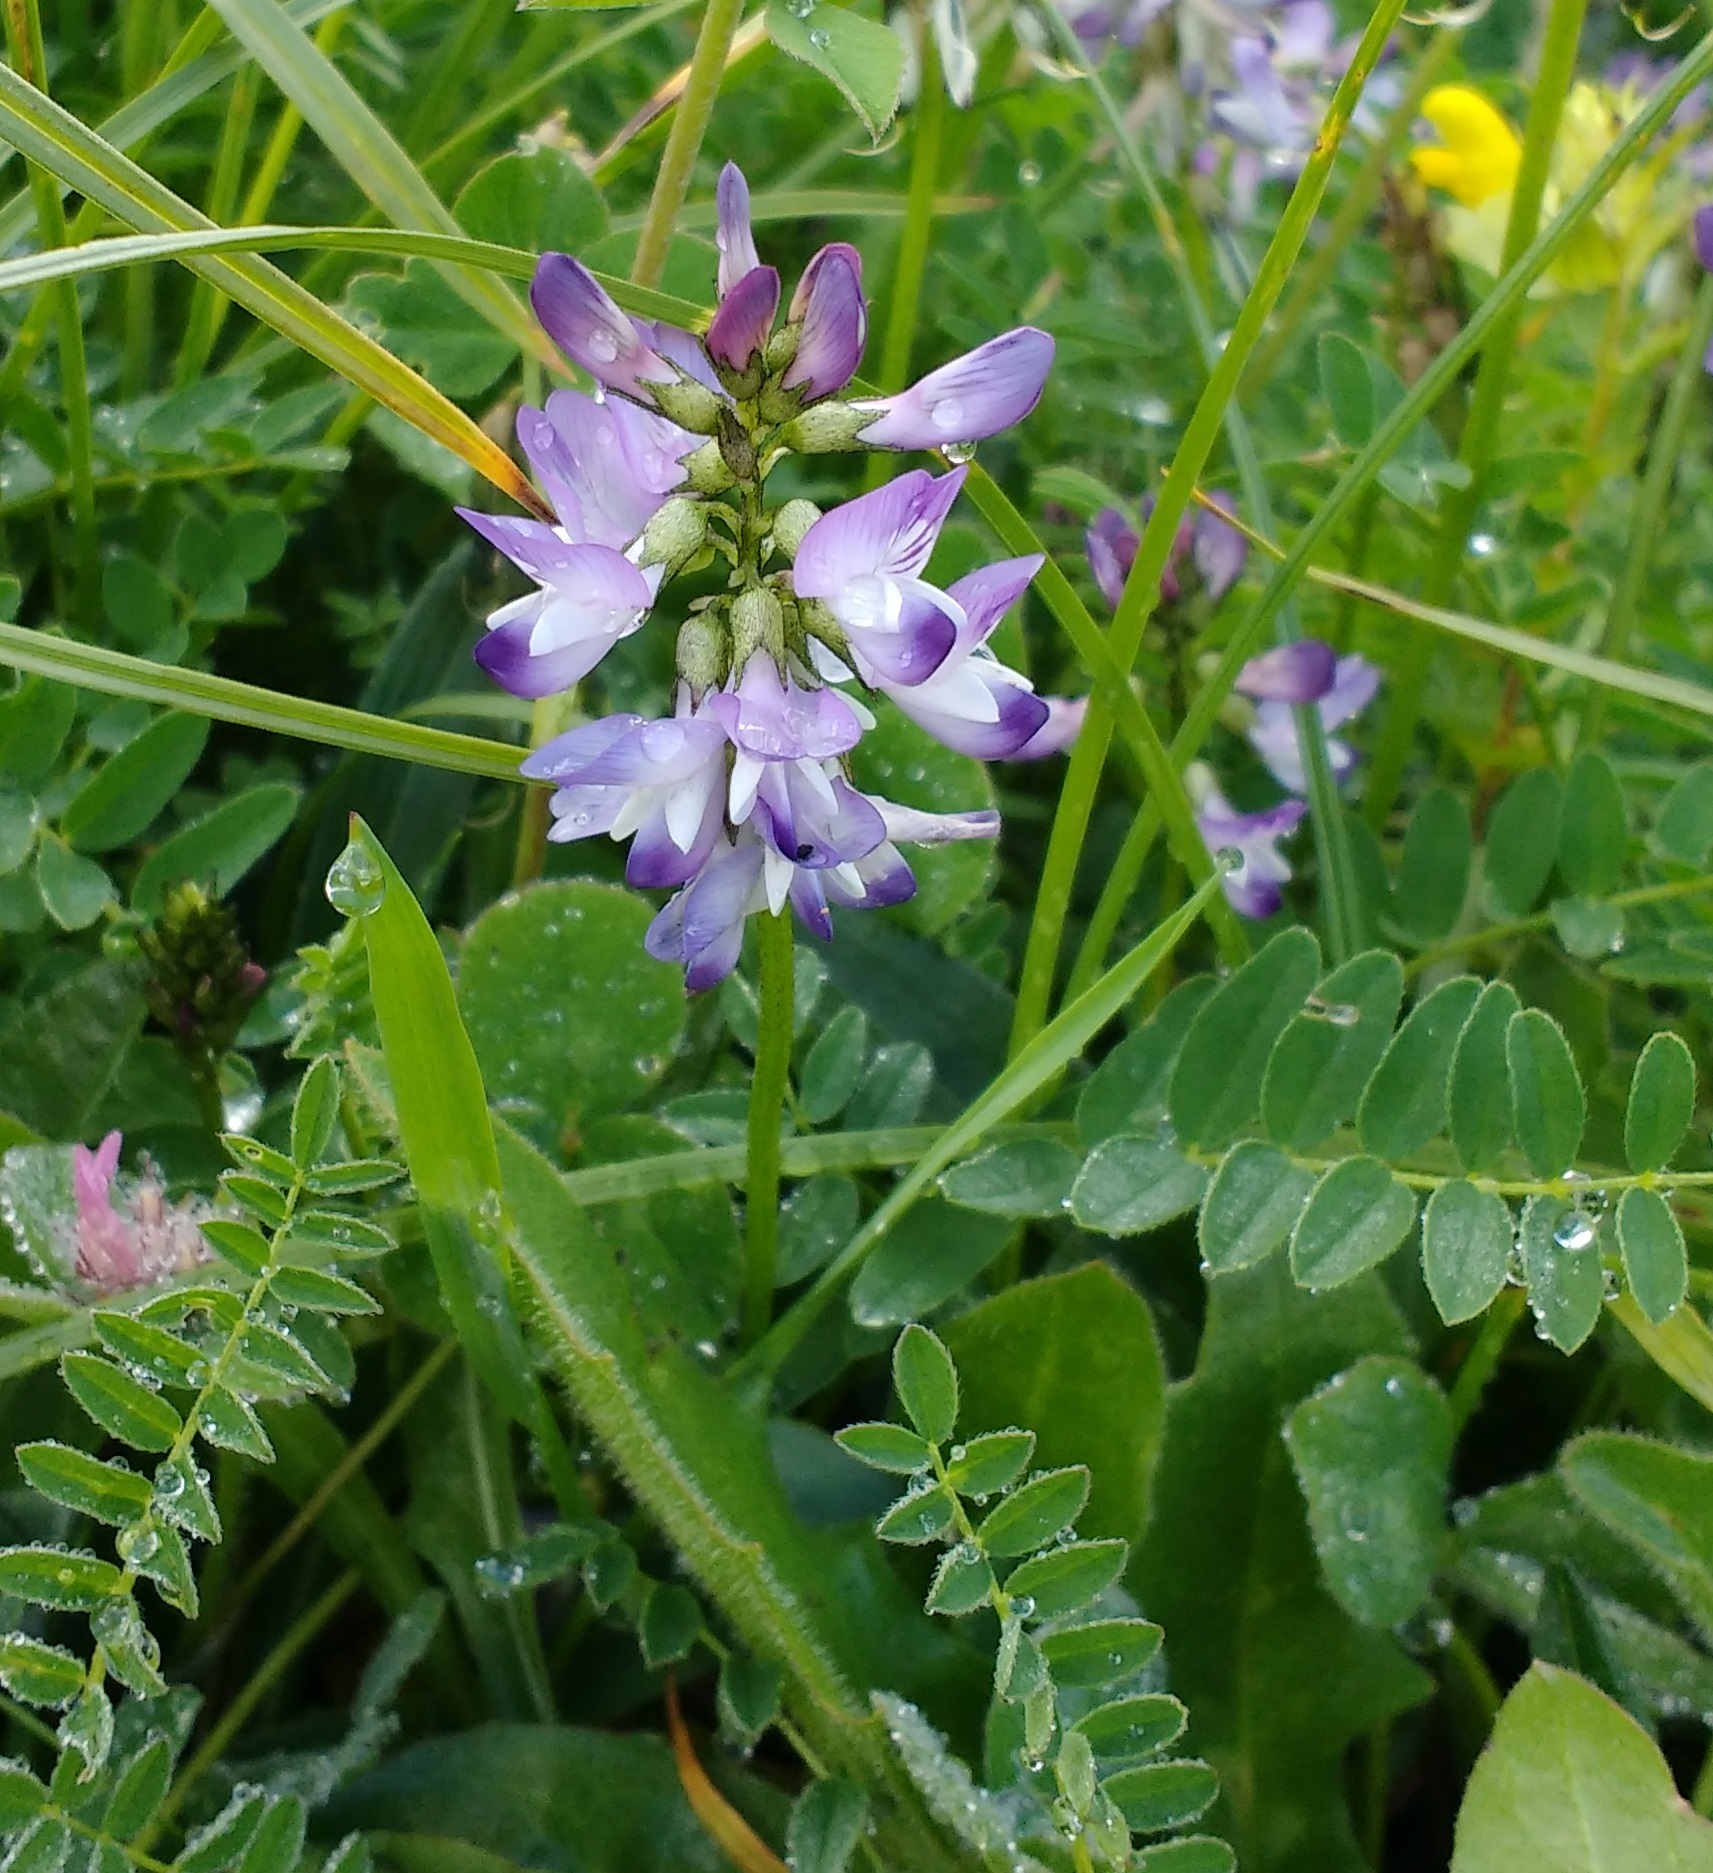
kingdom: Plantae
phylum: Tracheophyta
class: Magnoliopsida
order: Fabales
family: Fabaceae
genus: Astragalus
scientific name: Astragalus alpinus
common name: Alpine milk-vetch
